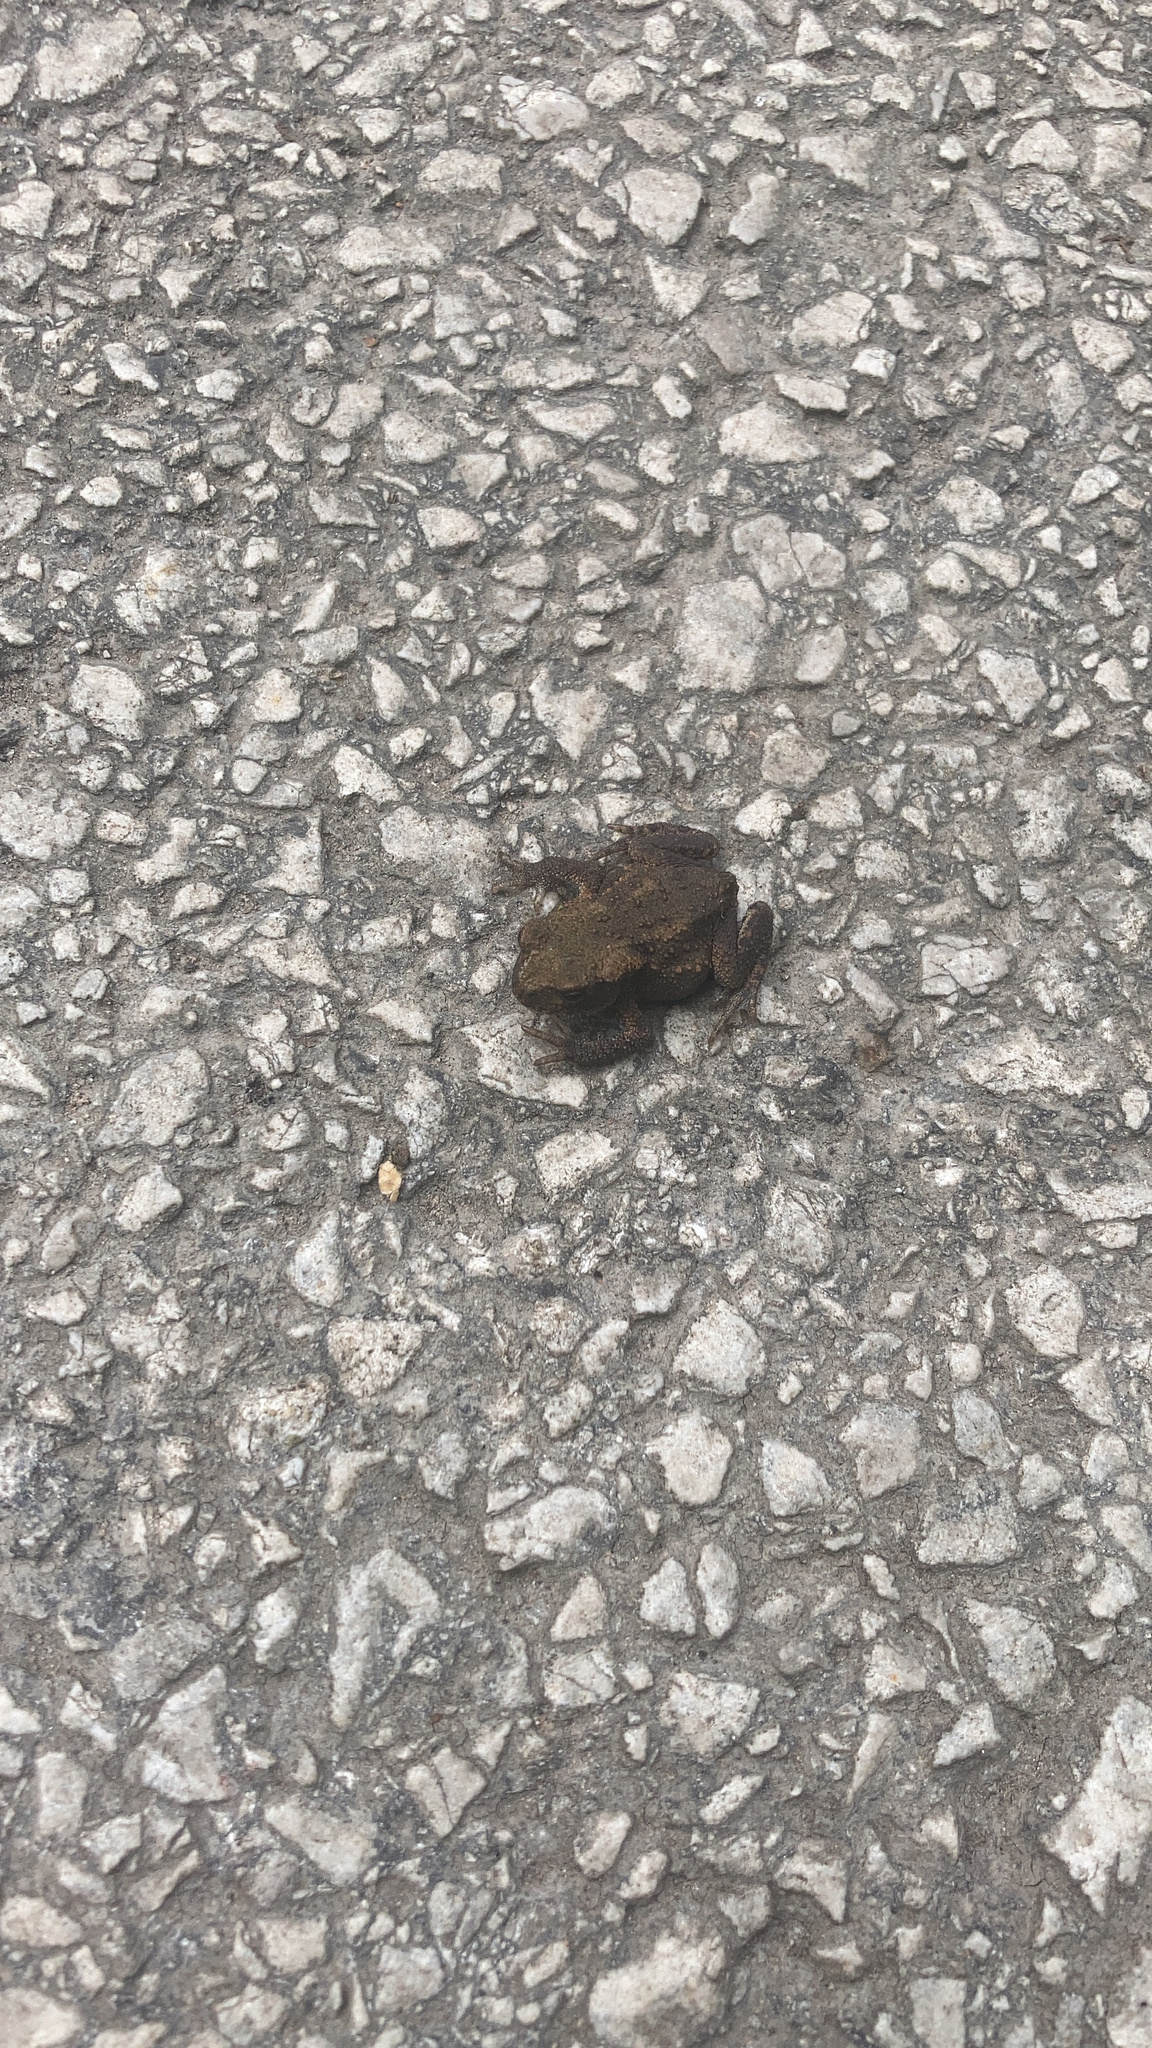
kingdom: Animalia
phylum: Chordata
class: Amphibia
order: Anura
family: Bufonidae
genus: Bufo
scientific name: Bufo bufo
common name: Common toad
